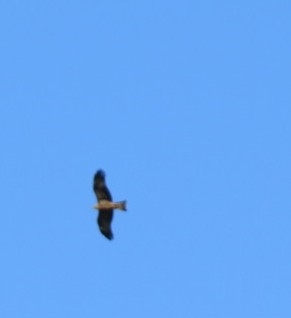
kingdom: Animalia
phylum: Chordata
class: Aves
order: Accipitriformes
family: Accipitridae
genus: Milvus
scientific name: Milvus migrans
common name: Black kite
